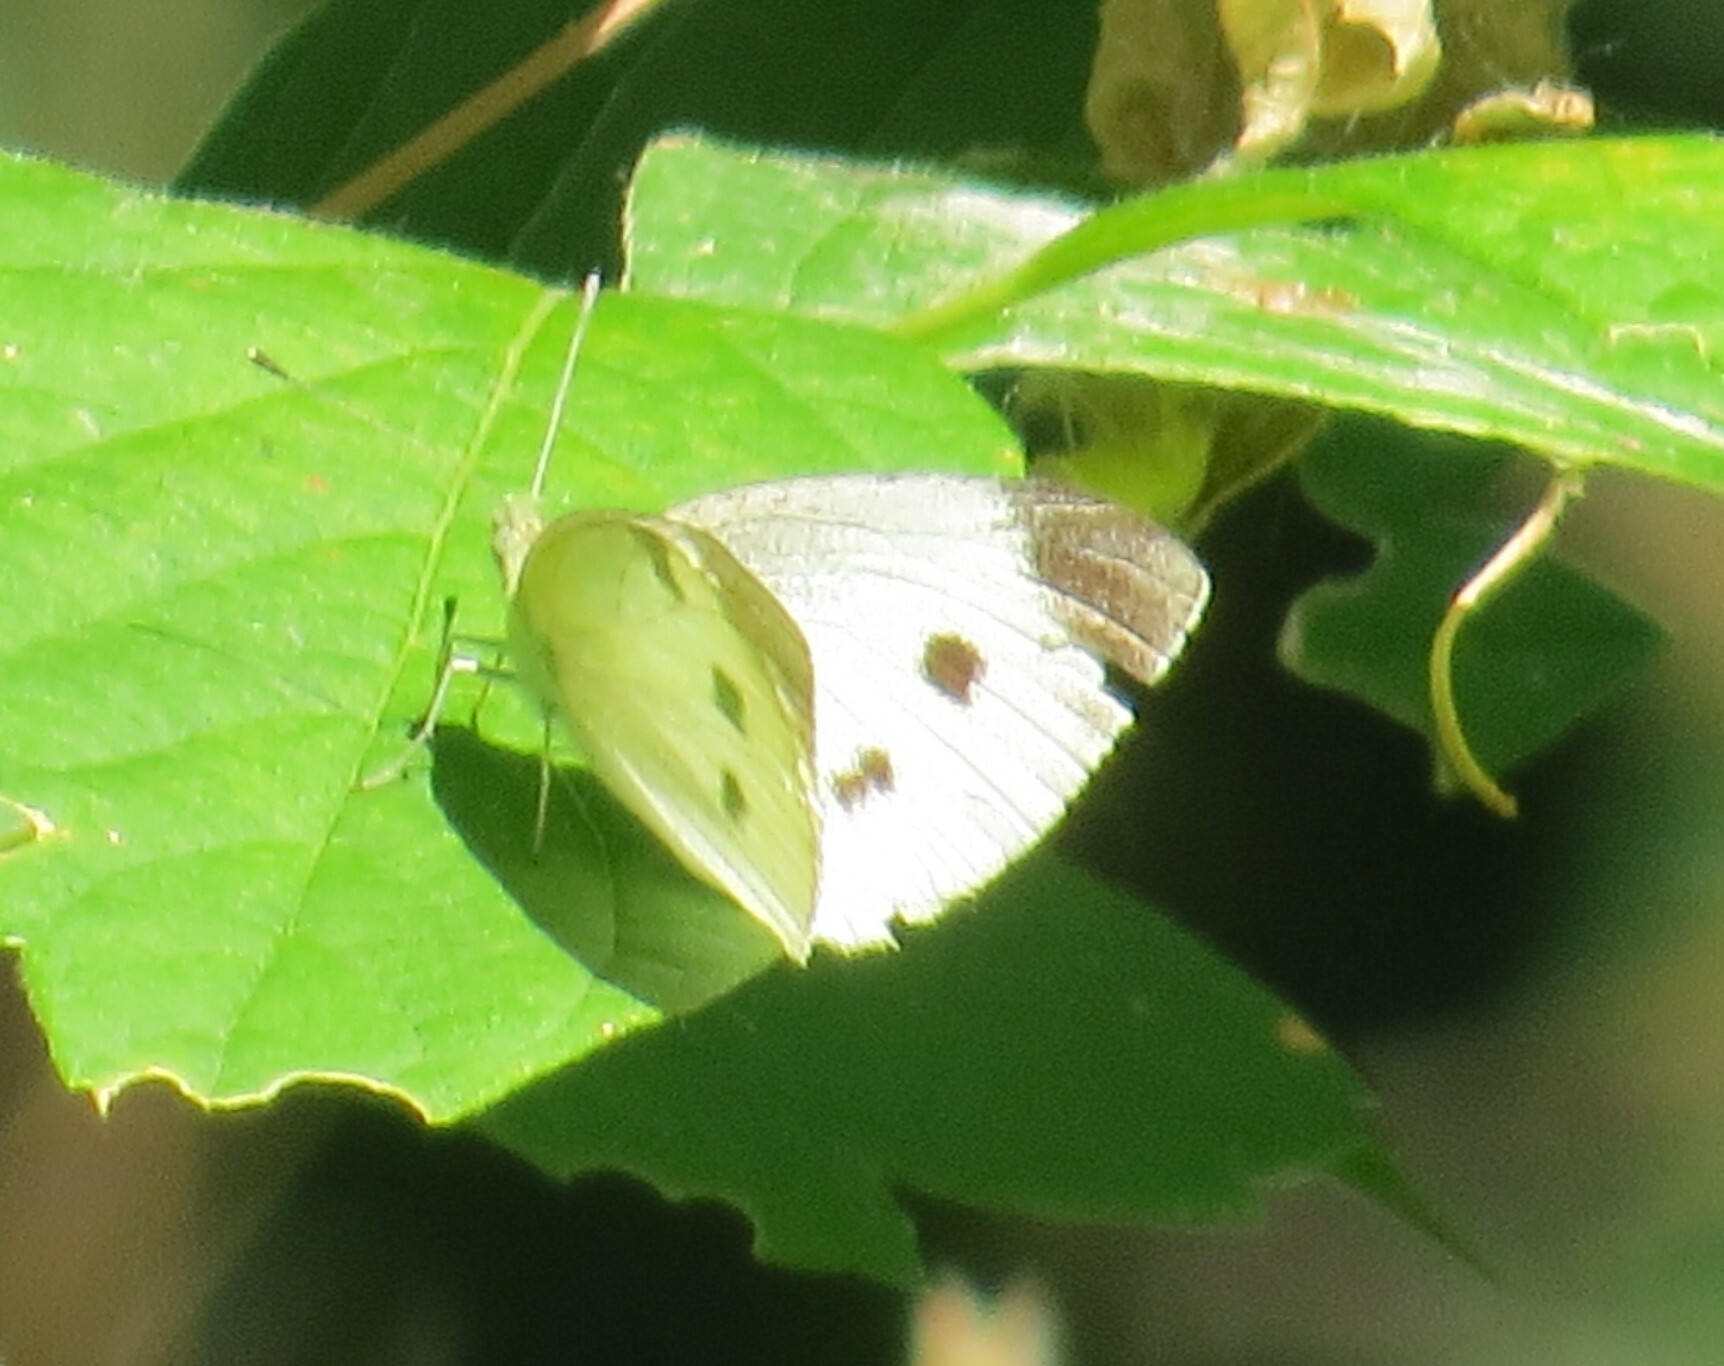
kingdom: Animalia
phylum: Arthropoda
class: Insecta
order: Lepidoptera
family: Pieridae
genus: Pieris
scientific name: Pieris rapae
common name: Small white
